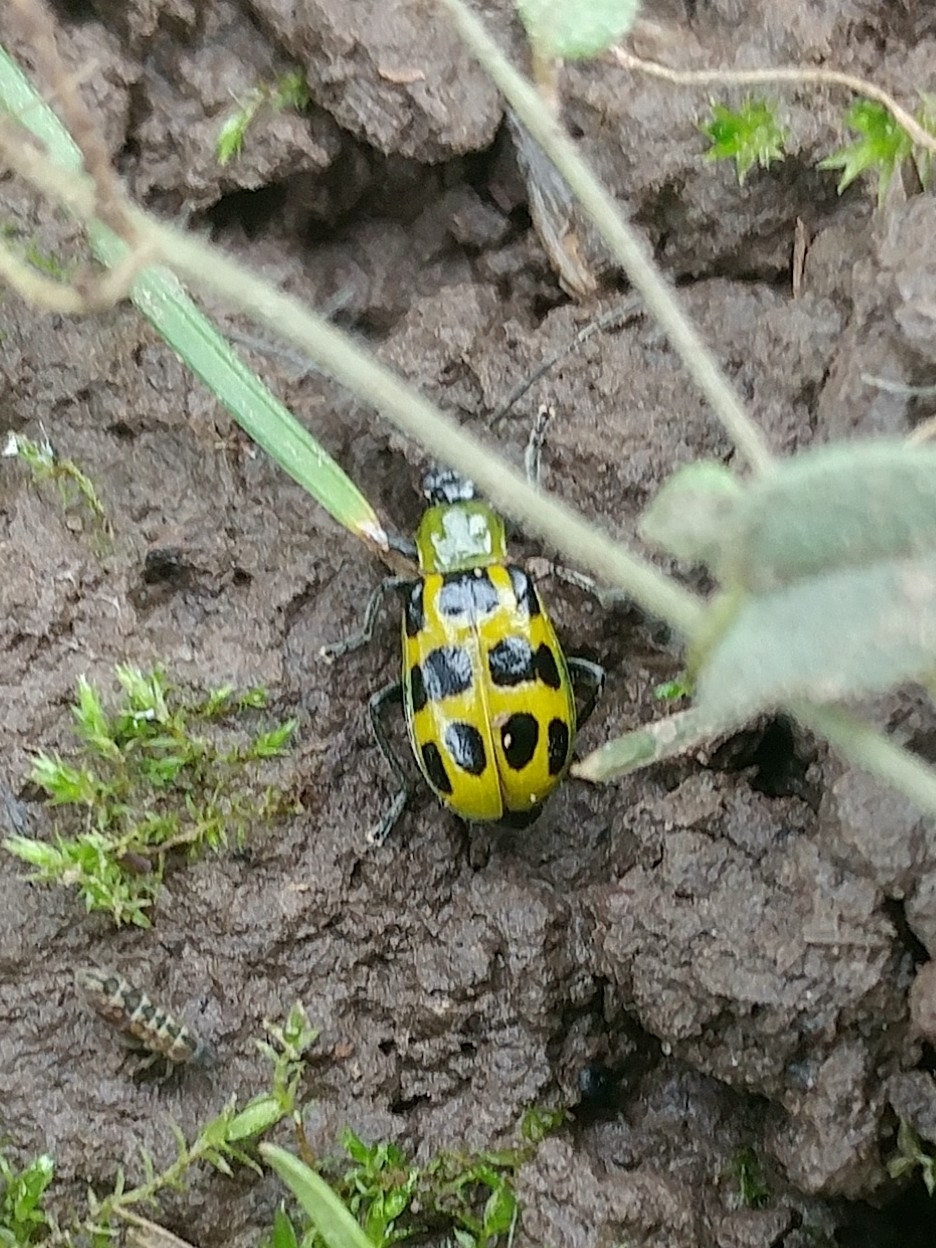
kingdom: Animalia
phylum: Arthropoda
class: Insecta
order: Coleoptera
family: Chrysomelidae
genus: Diabrotica
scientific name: Diabrotica undecimpunctata
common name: Spotted cucumber beetle
